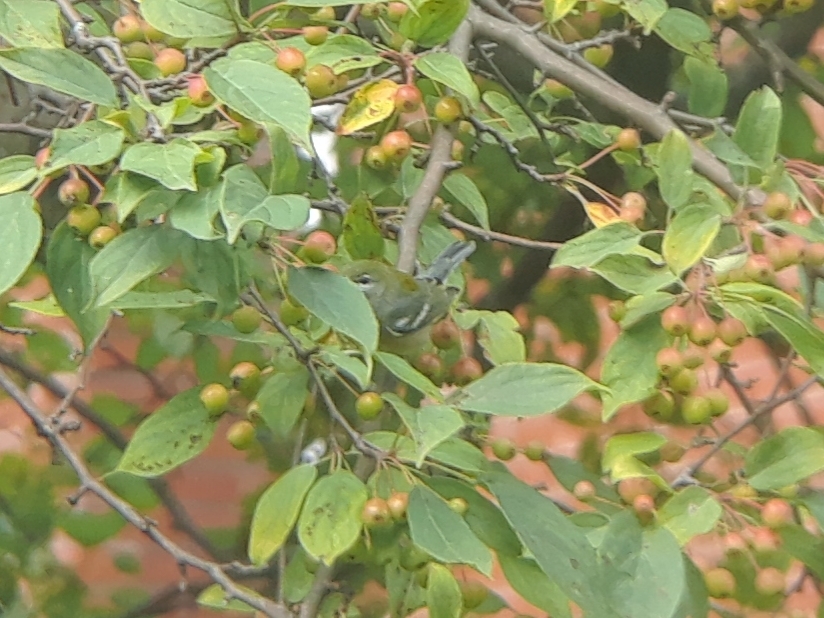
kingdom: Animalia
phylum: Chordata
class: Aves
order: Passeriformes
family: Parulidae
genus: Setophaga
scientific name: Setophaga americana
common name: Northern parula
